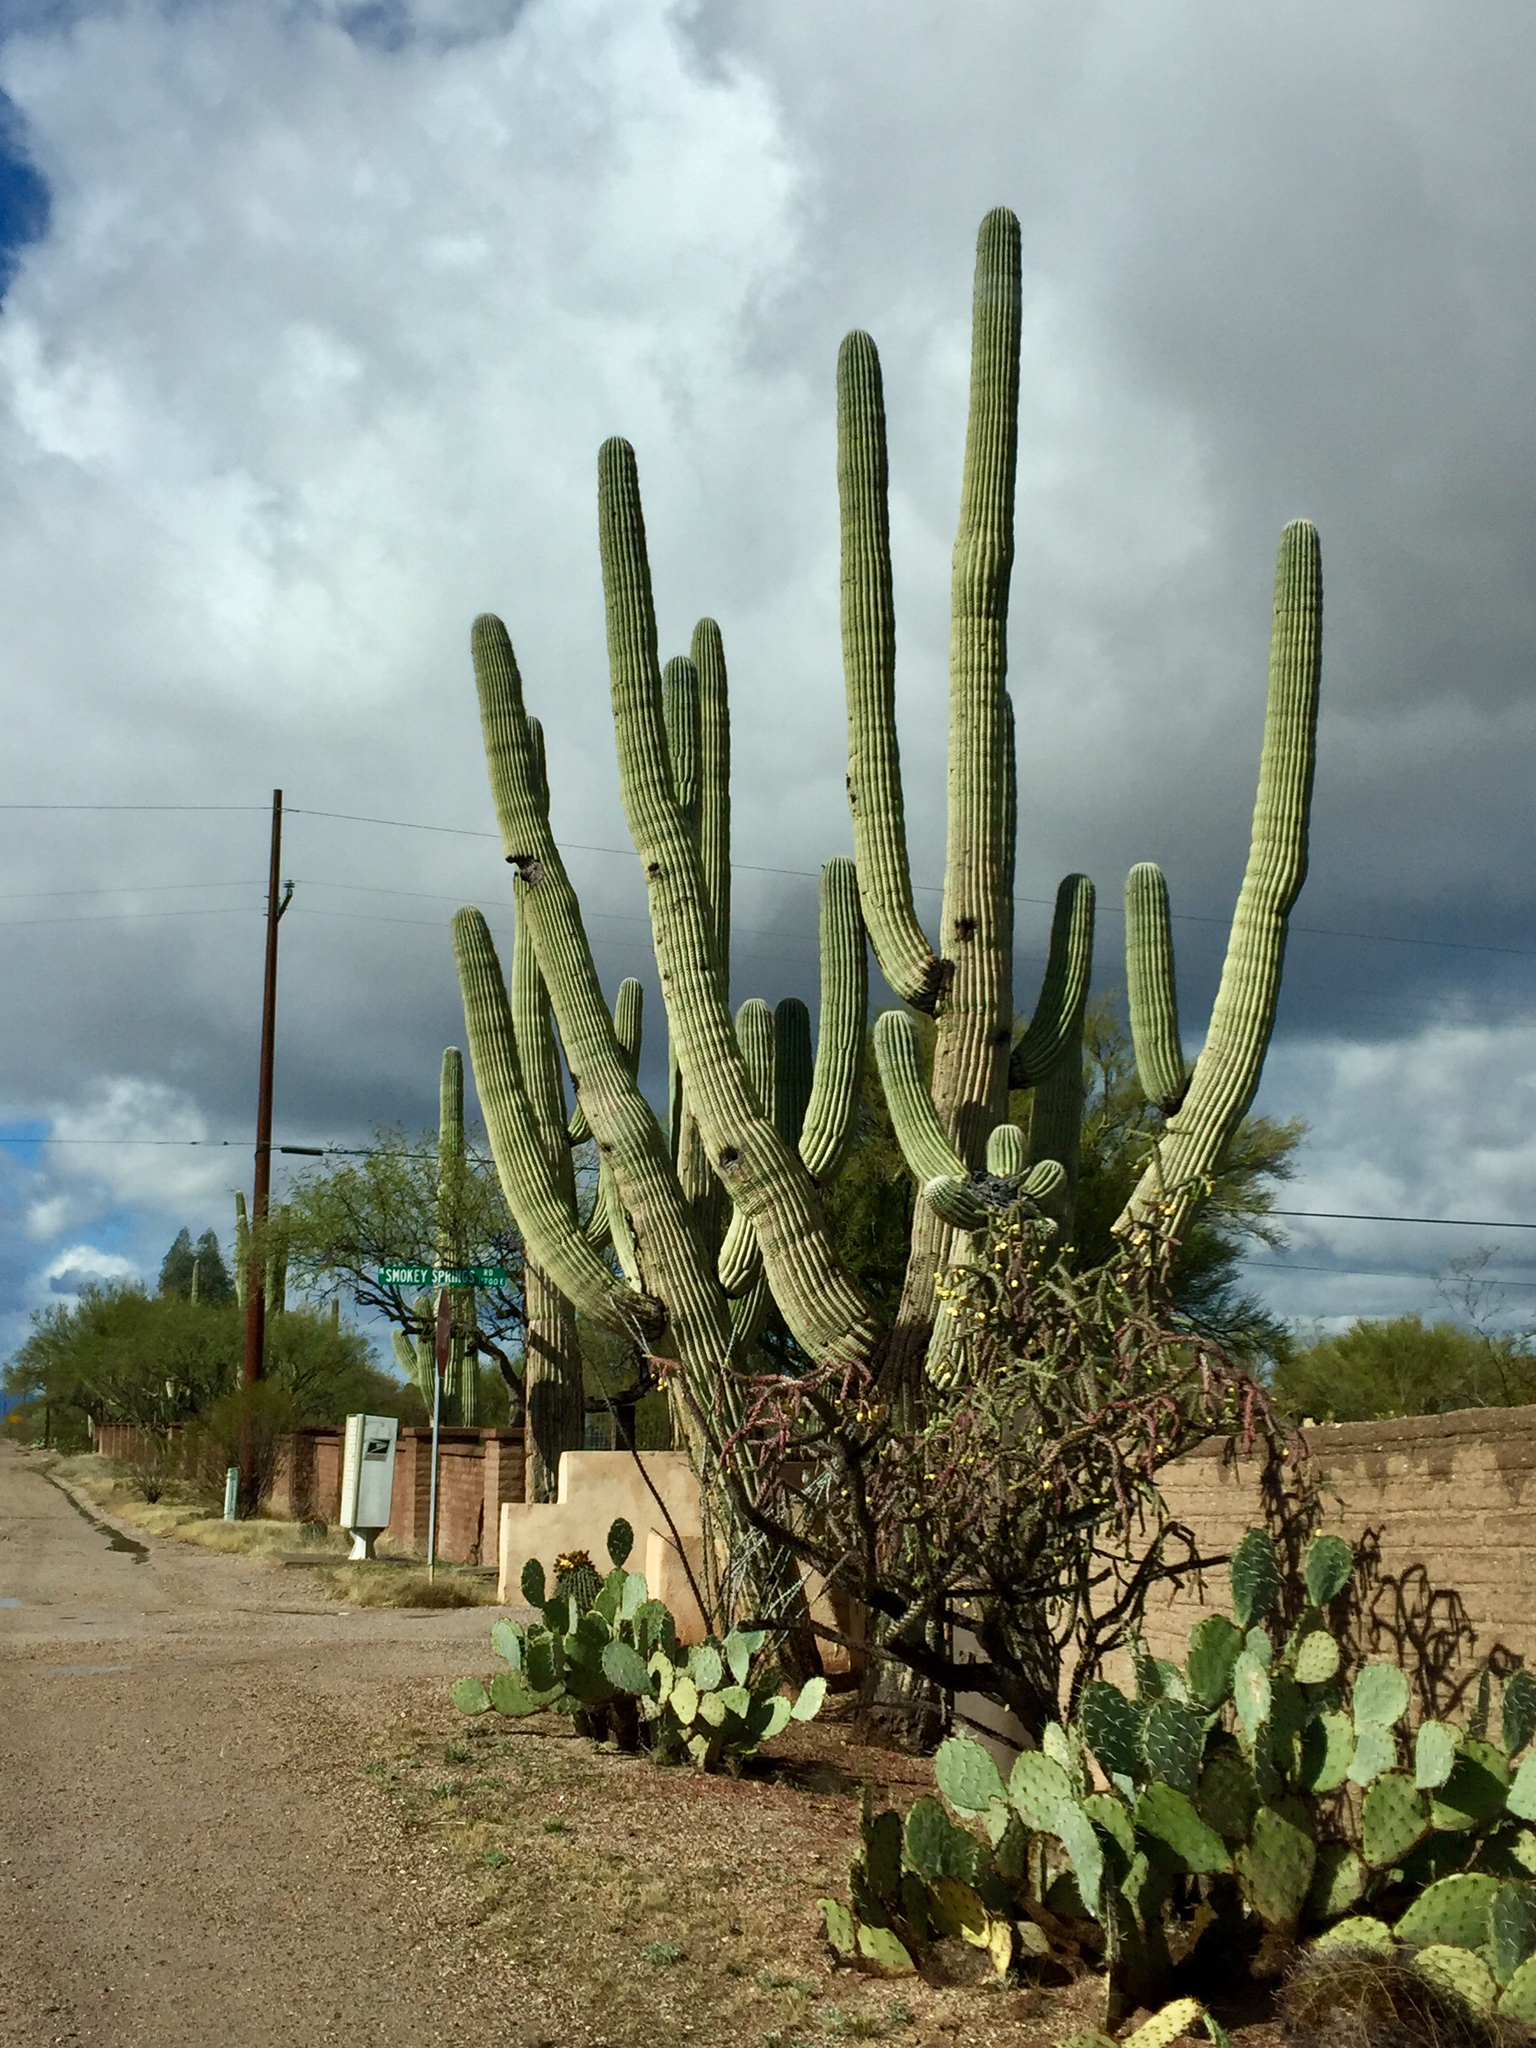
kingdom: Plantae
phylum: Tracheophyta
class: Magnoliopsida
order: Caryophyllales
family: Cactaceae
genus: Carnegiea
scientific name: Carnegiea gigantea
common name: Saguaro
